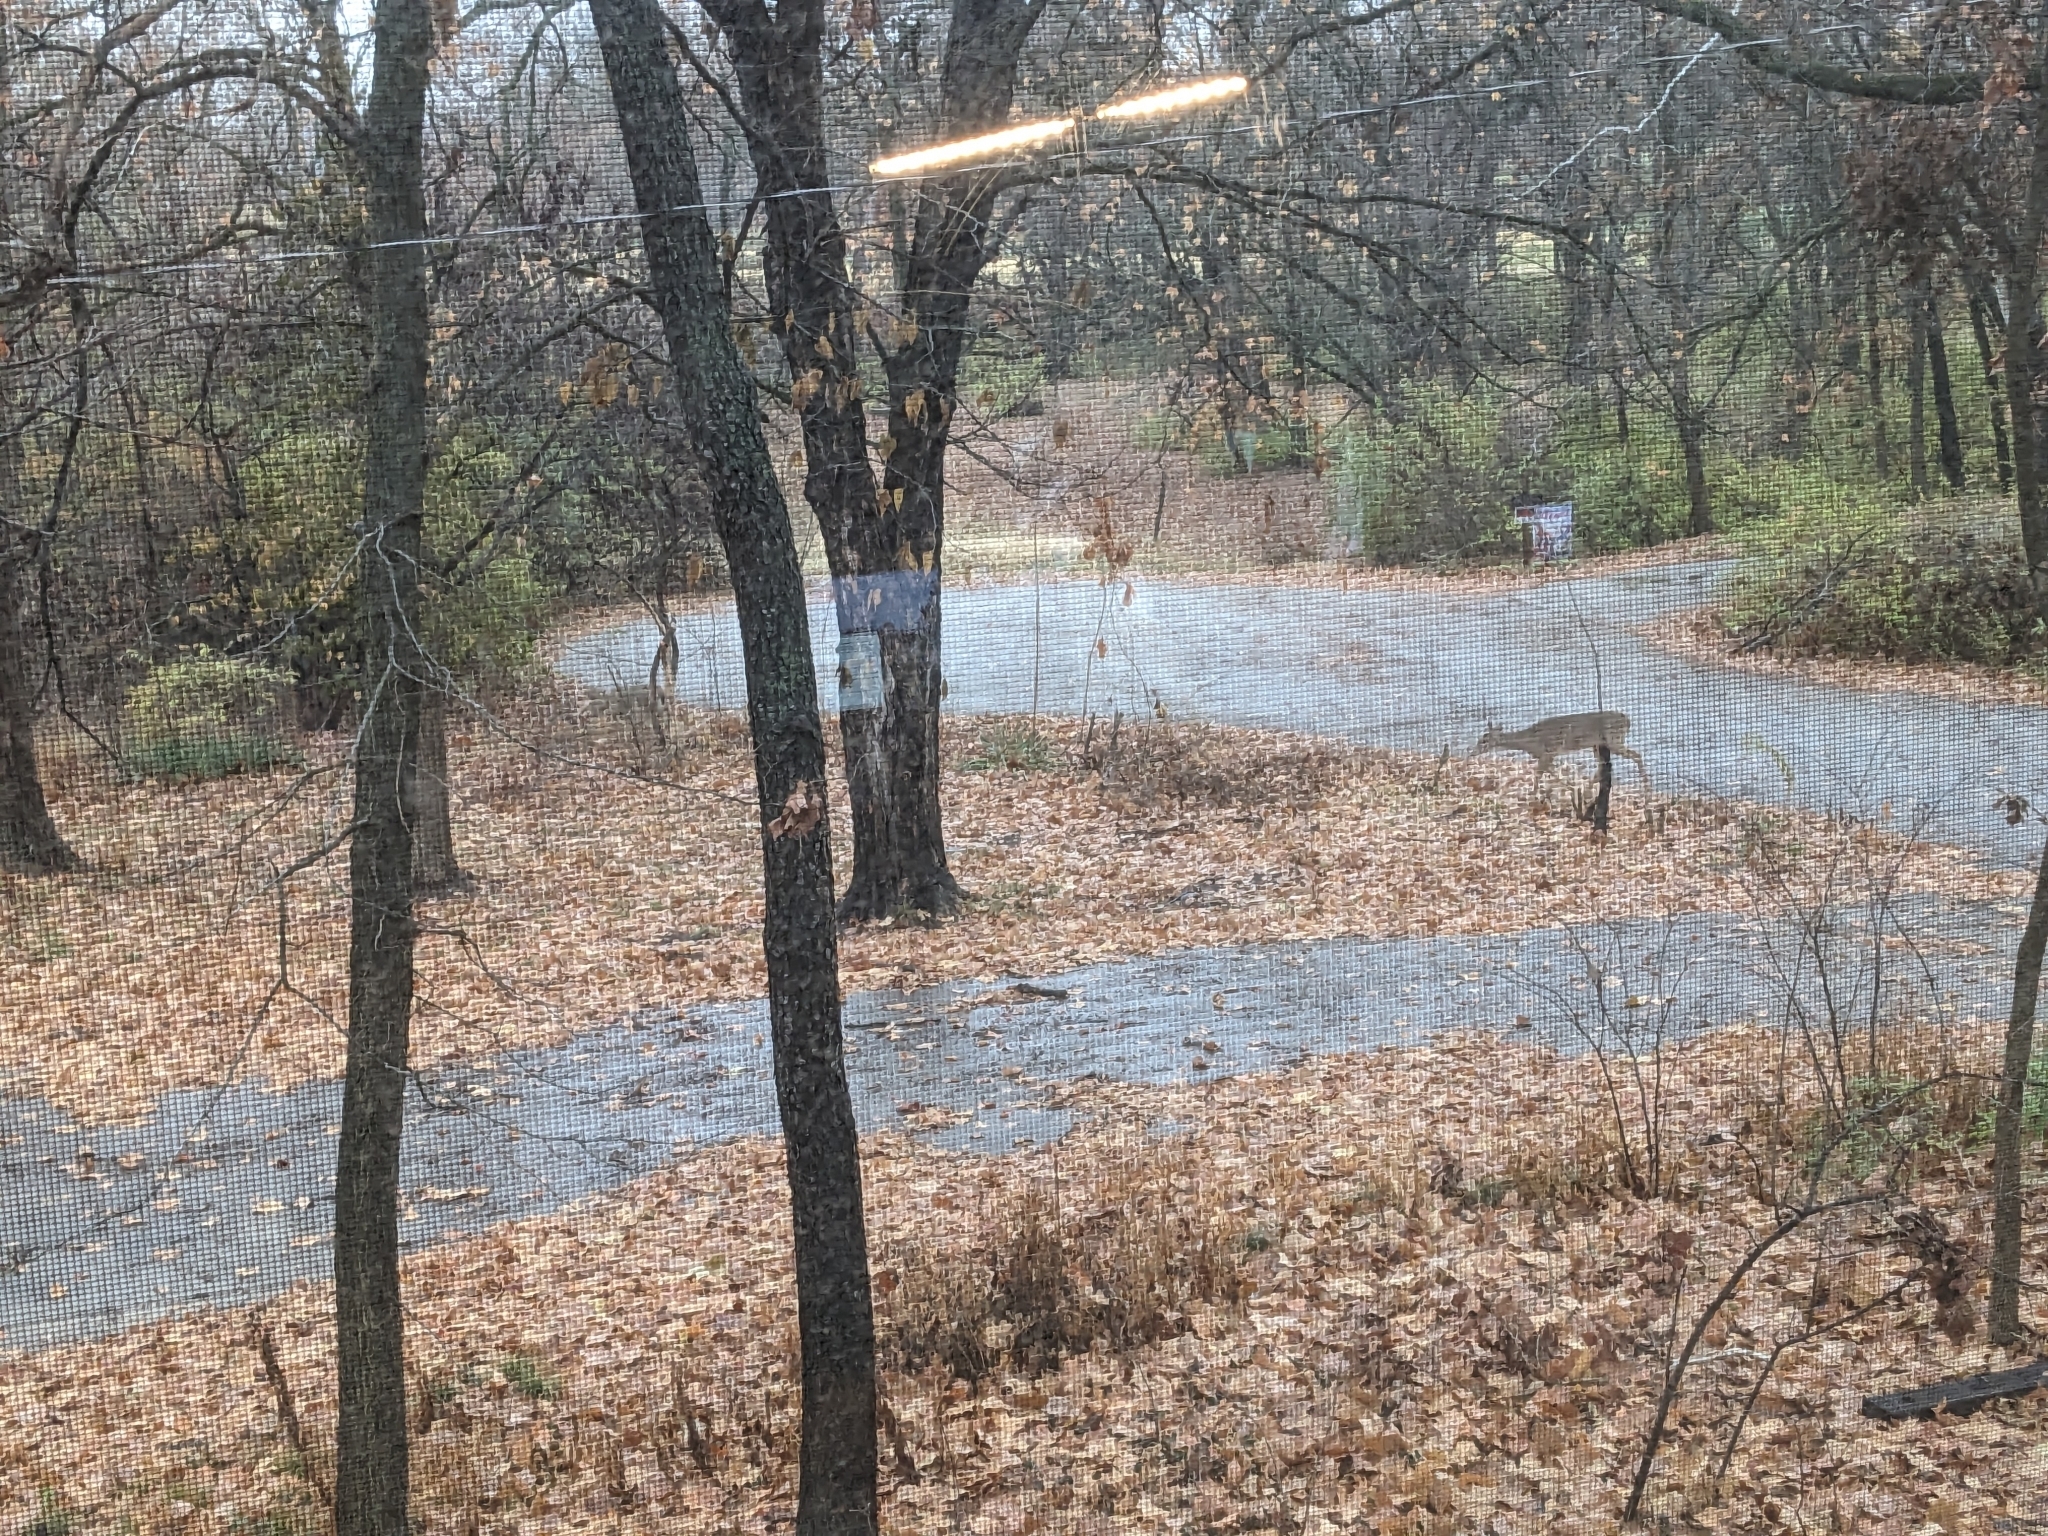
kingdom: Animalia
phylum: Chordata
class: Mammalia
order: Artiodactyla
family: Cervidae
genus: Odocoileus
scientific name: Odocoileus virginianus
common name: White-tailed deer
